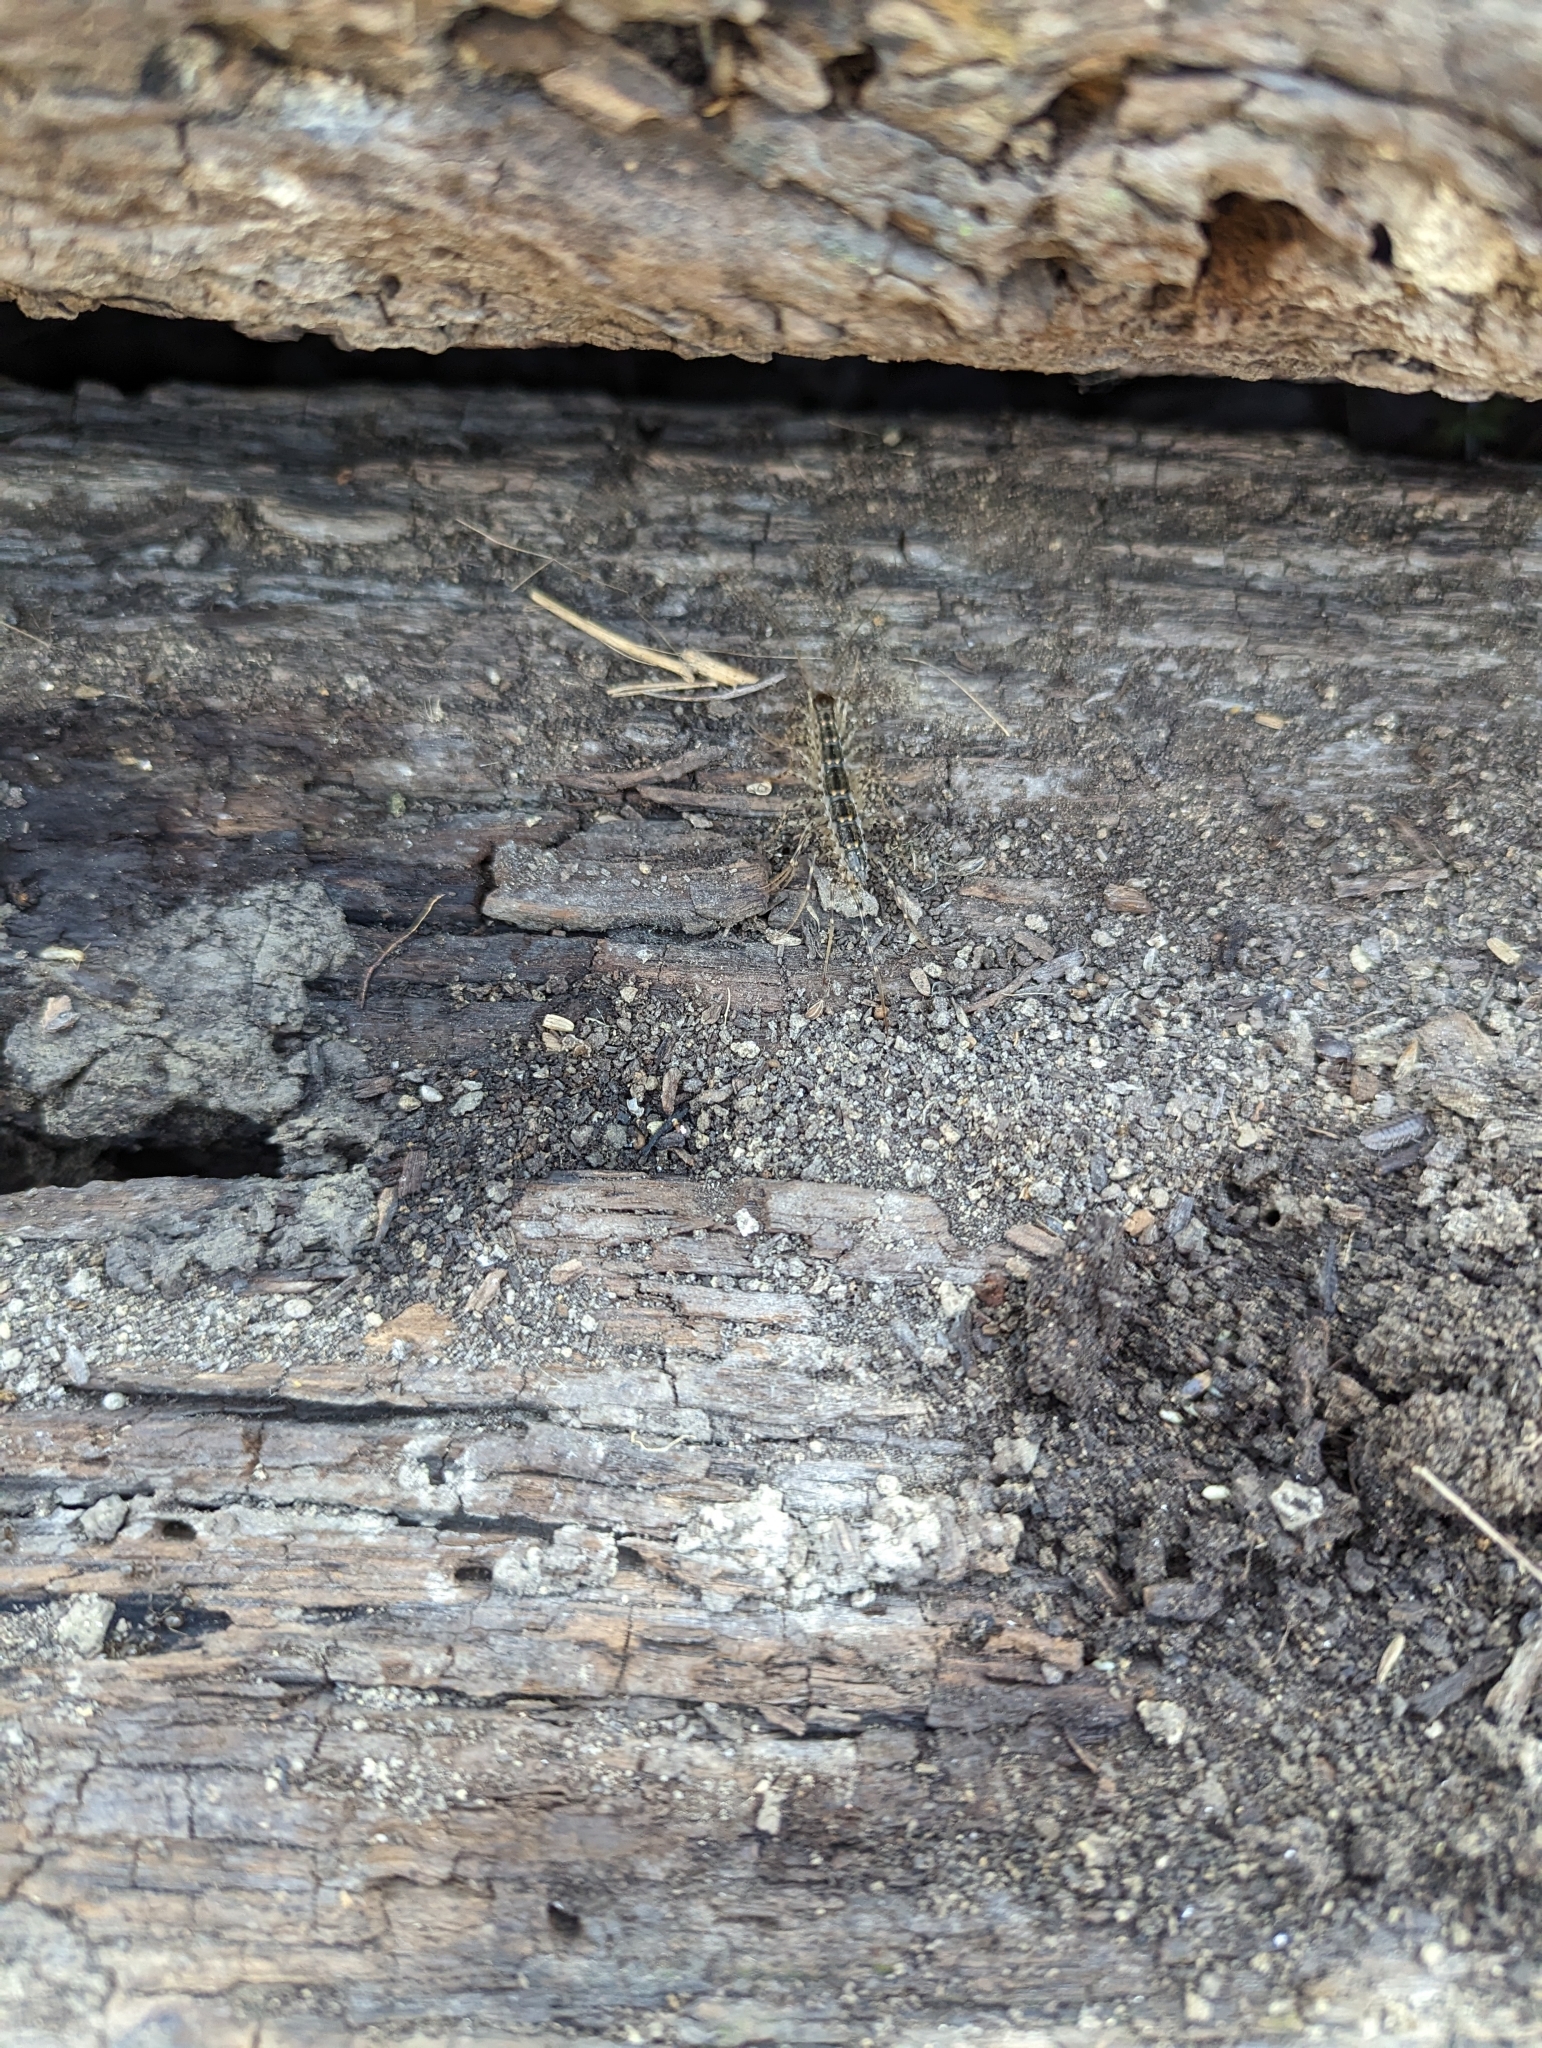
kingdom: Animalia
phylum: Arthropoda
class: Chilopoda
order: Scutigeromorpha
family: Scutigeridae
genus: Thereuonema
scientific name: Thereuonema tuberculata
